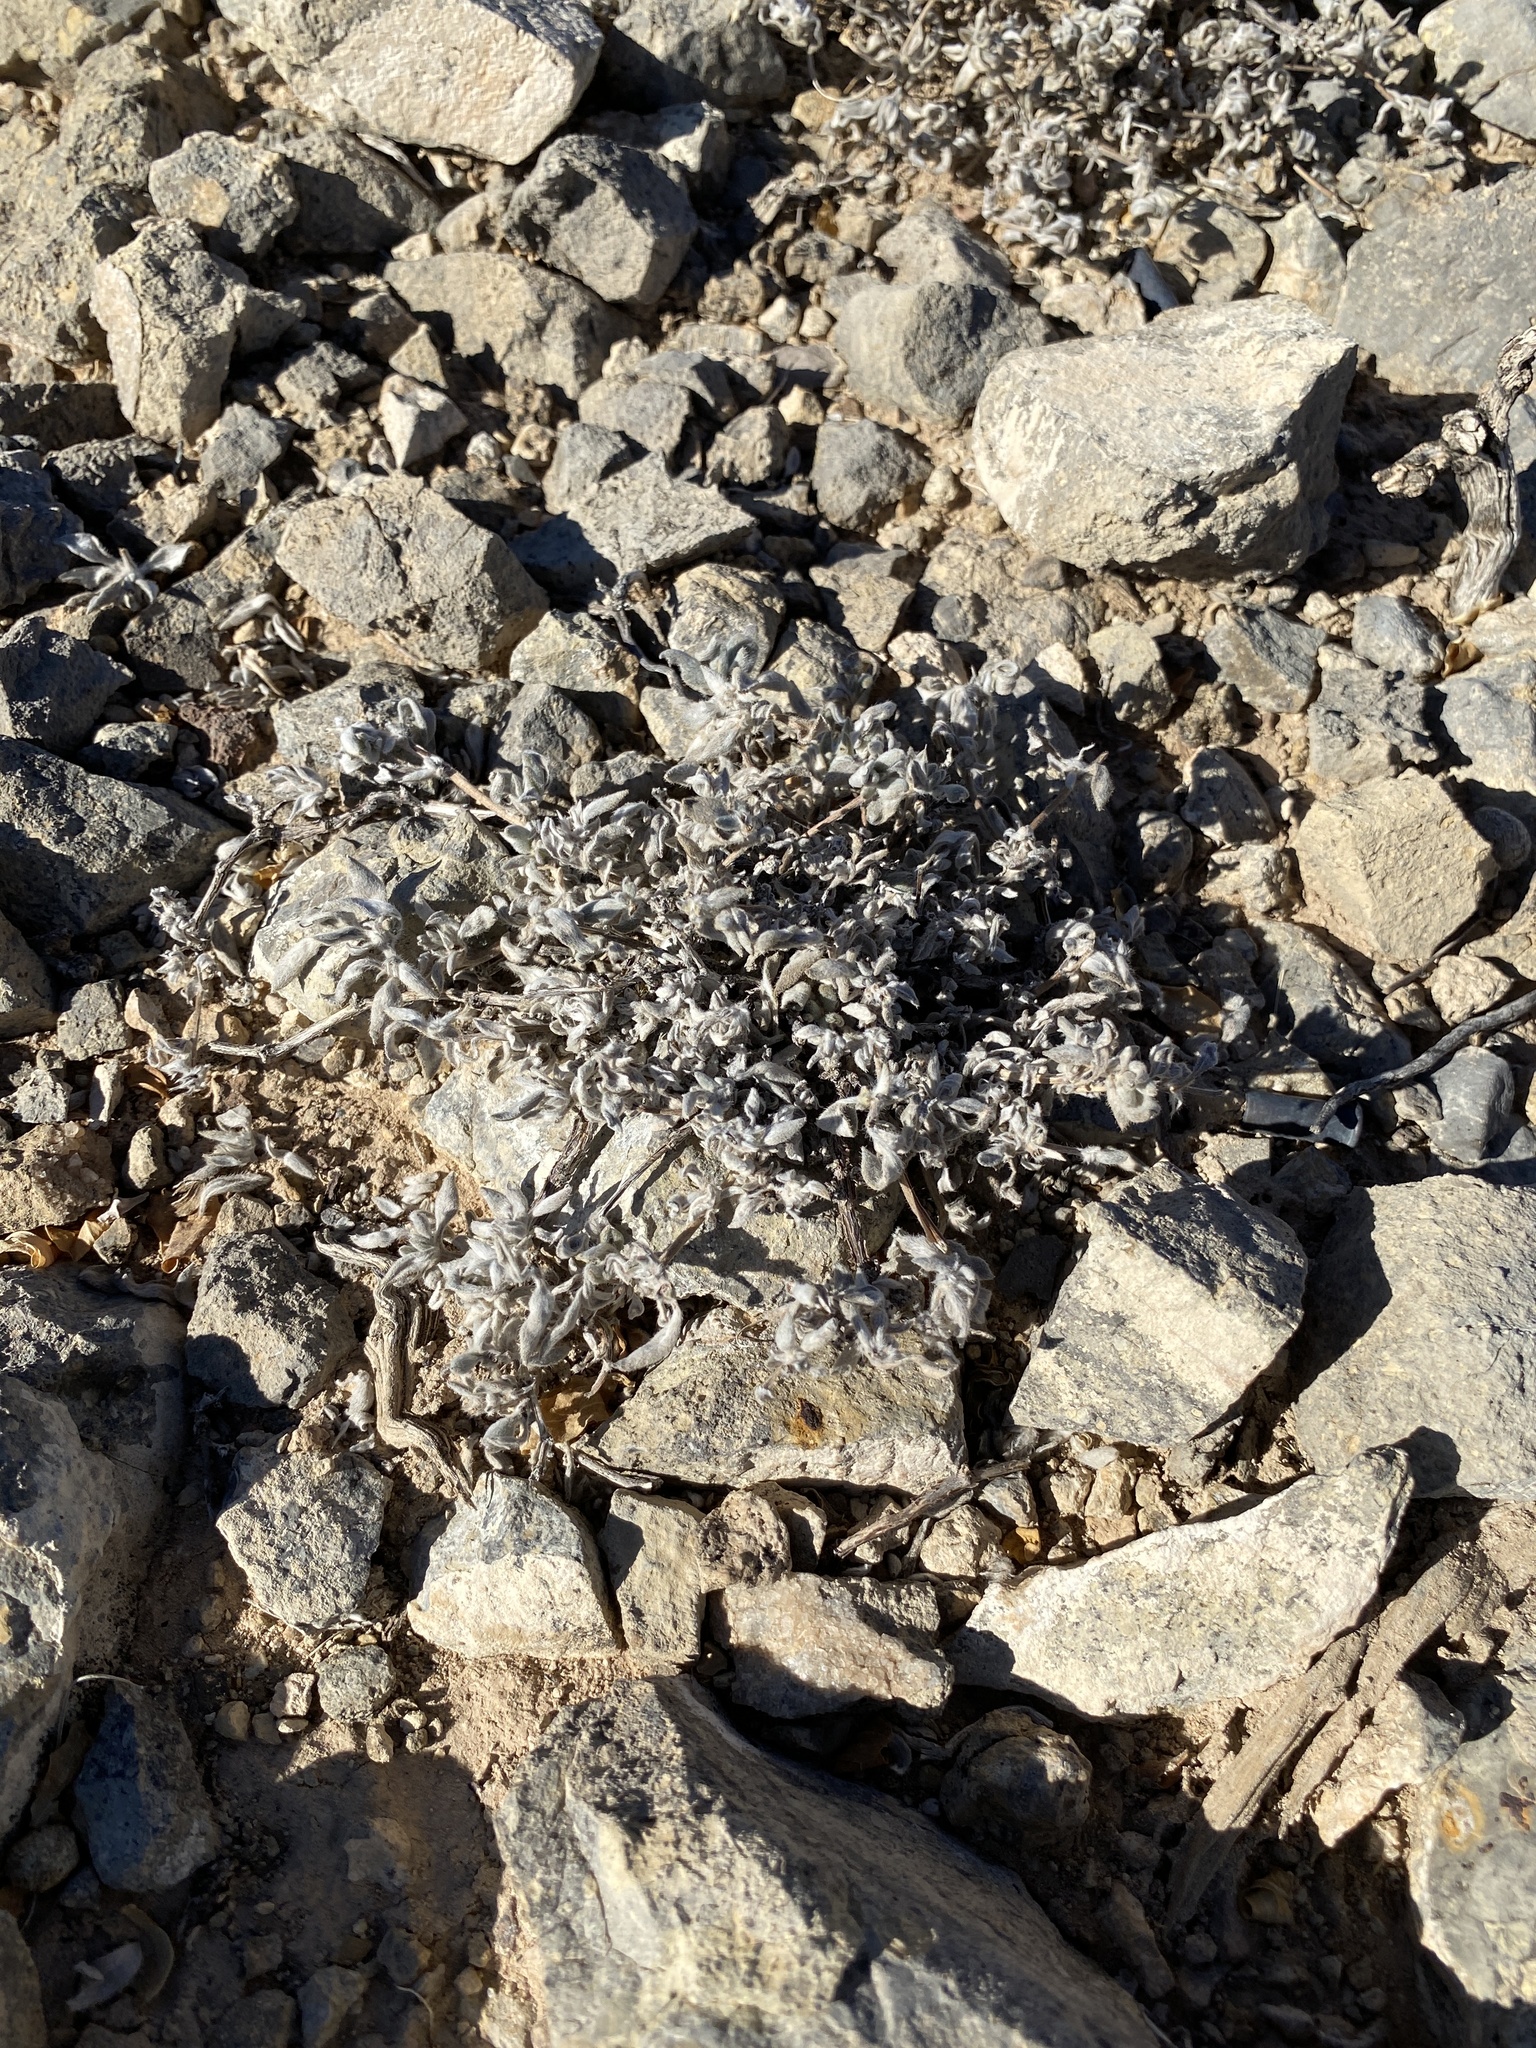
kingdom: Plantae
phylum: Tracheophyta
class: Magnoliopsida
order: Boraginales
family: Ehretiaceae
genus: Tiquilia
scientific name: Tiquilia canescens
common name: Hairy tiquilia
